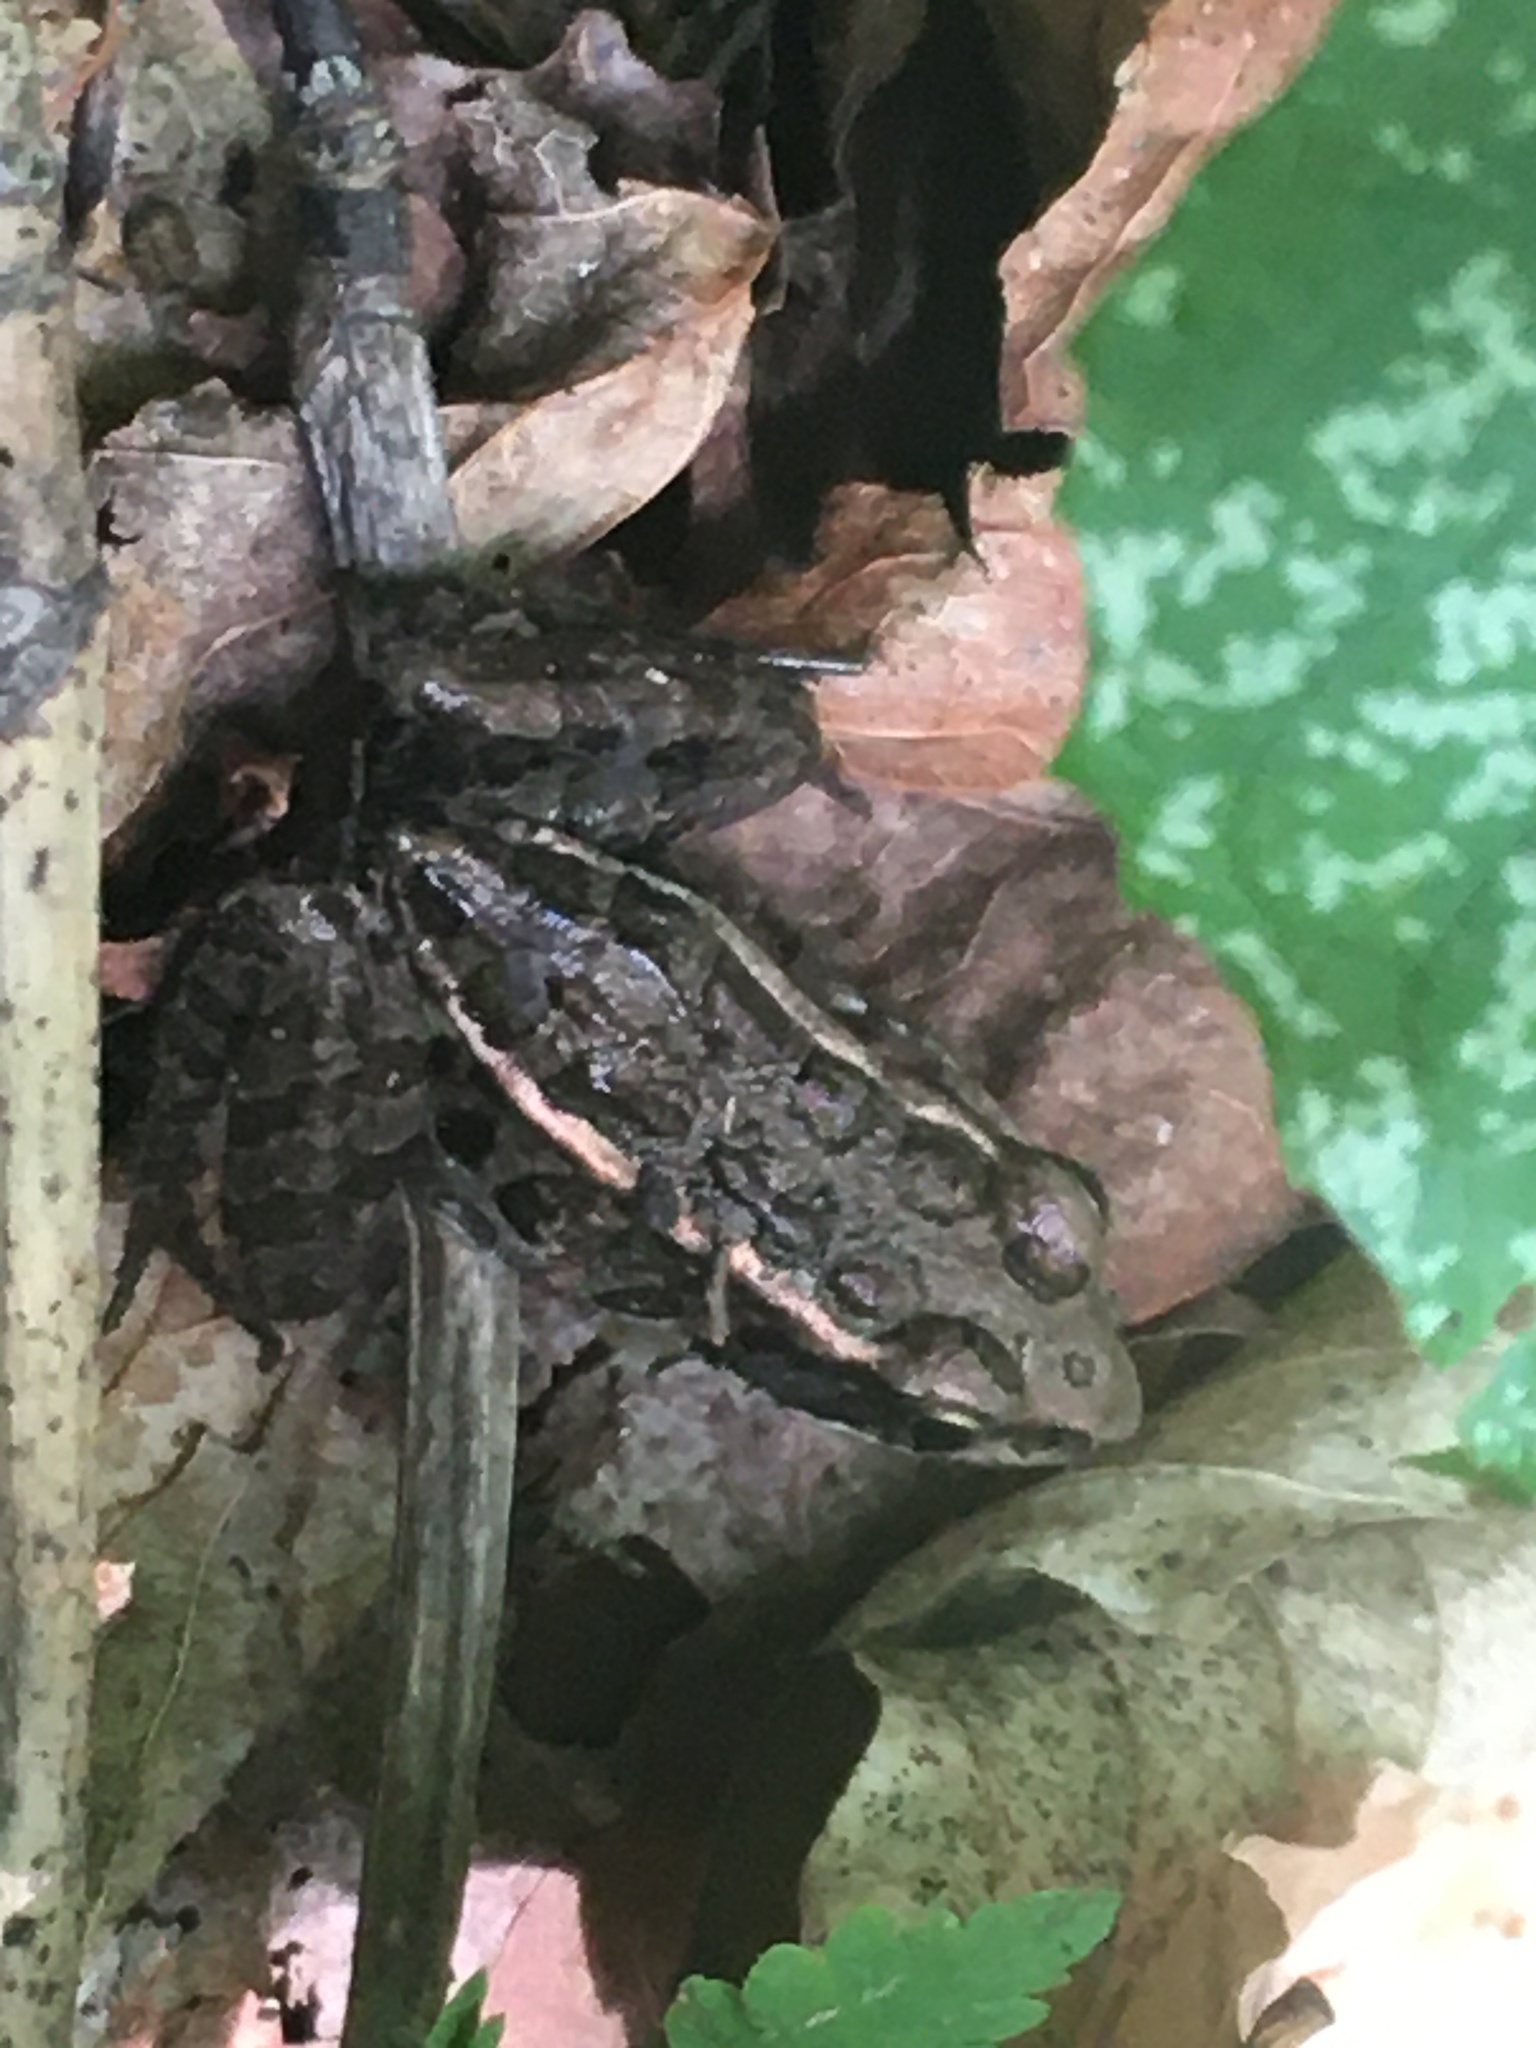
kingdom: Animalia
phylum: Chordata
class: Amphibia
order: Anura
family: Ranidae
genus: Lithobates
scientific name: Lithobates palustris
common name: Pickerel frog
